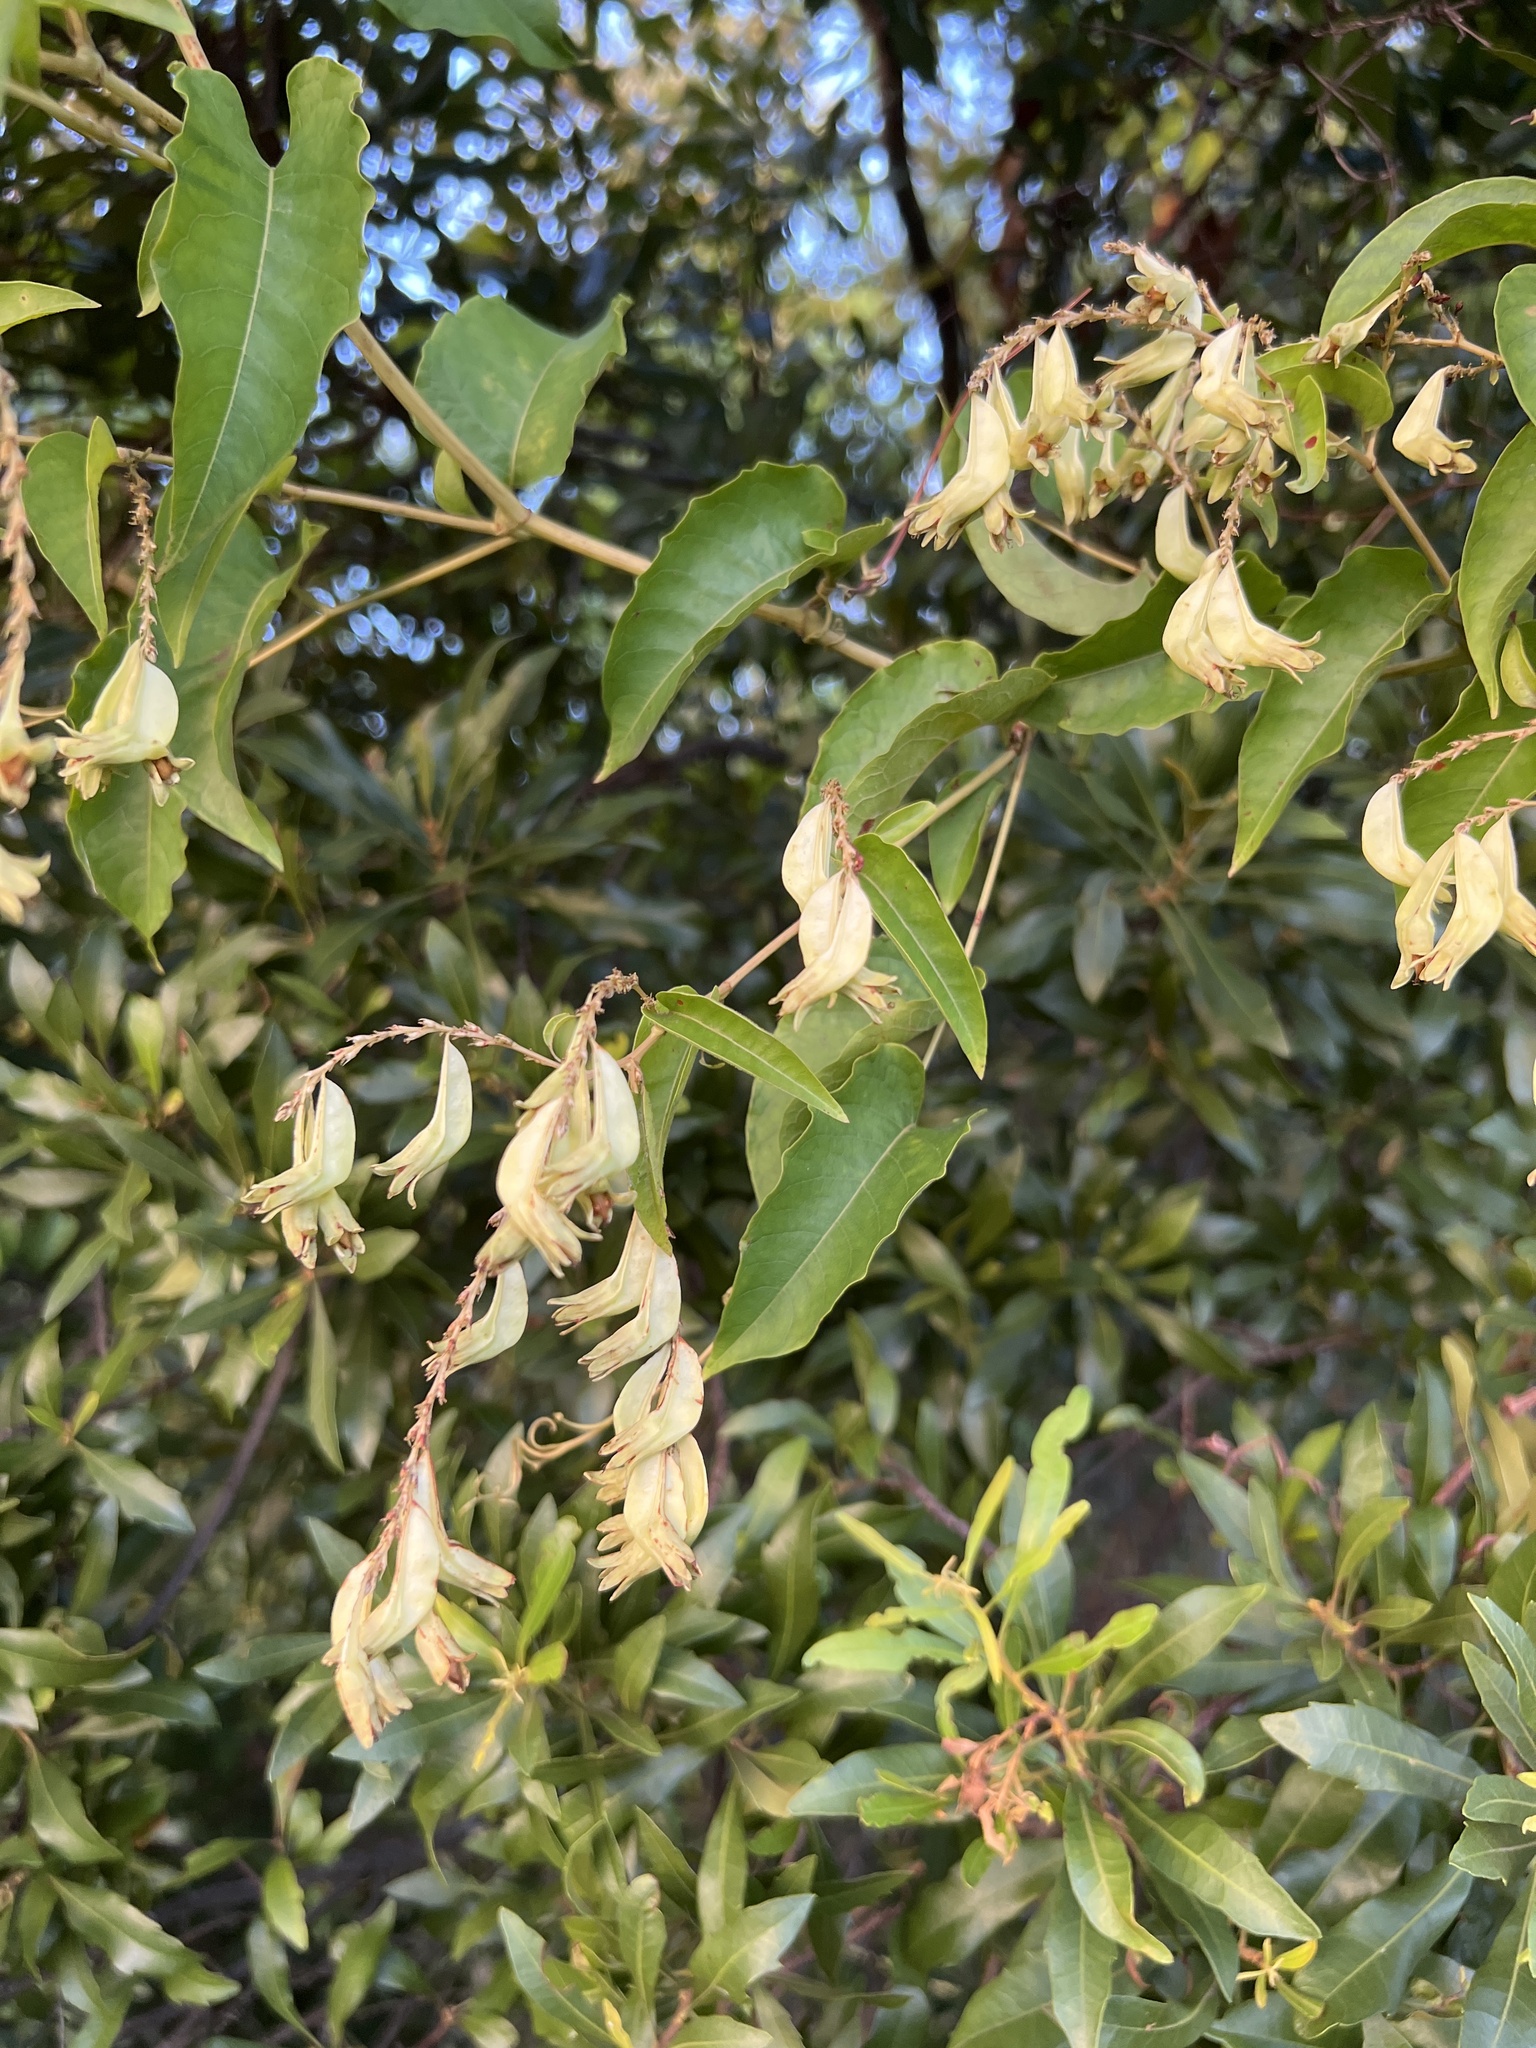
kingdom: Plantae
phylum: Tracheophyta
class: Magnoliopsida
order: Caryophyllales
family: Polygonaceae
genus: Brunnichia
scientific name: Brunnichia ovata
